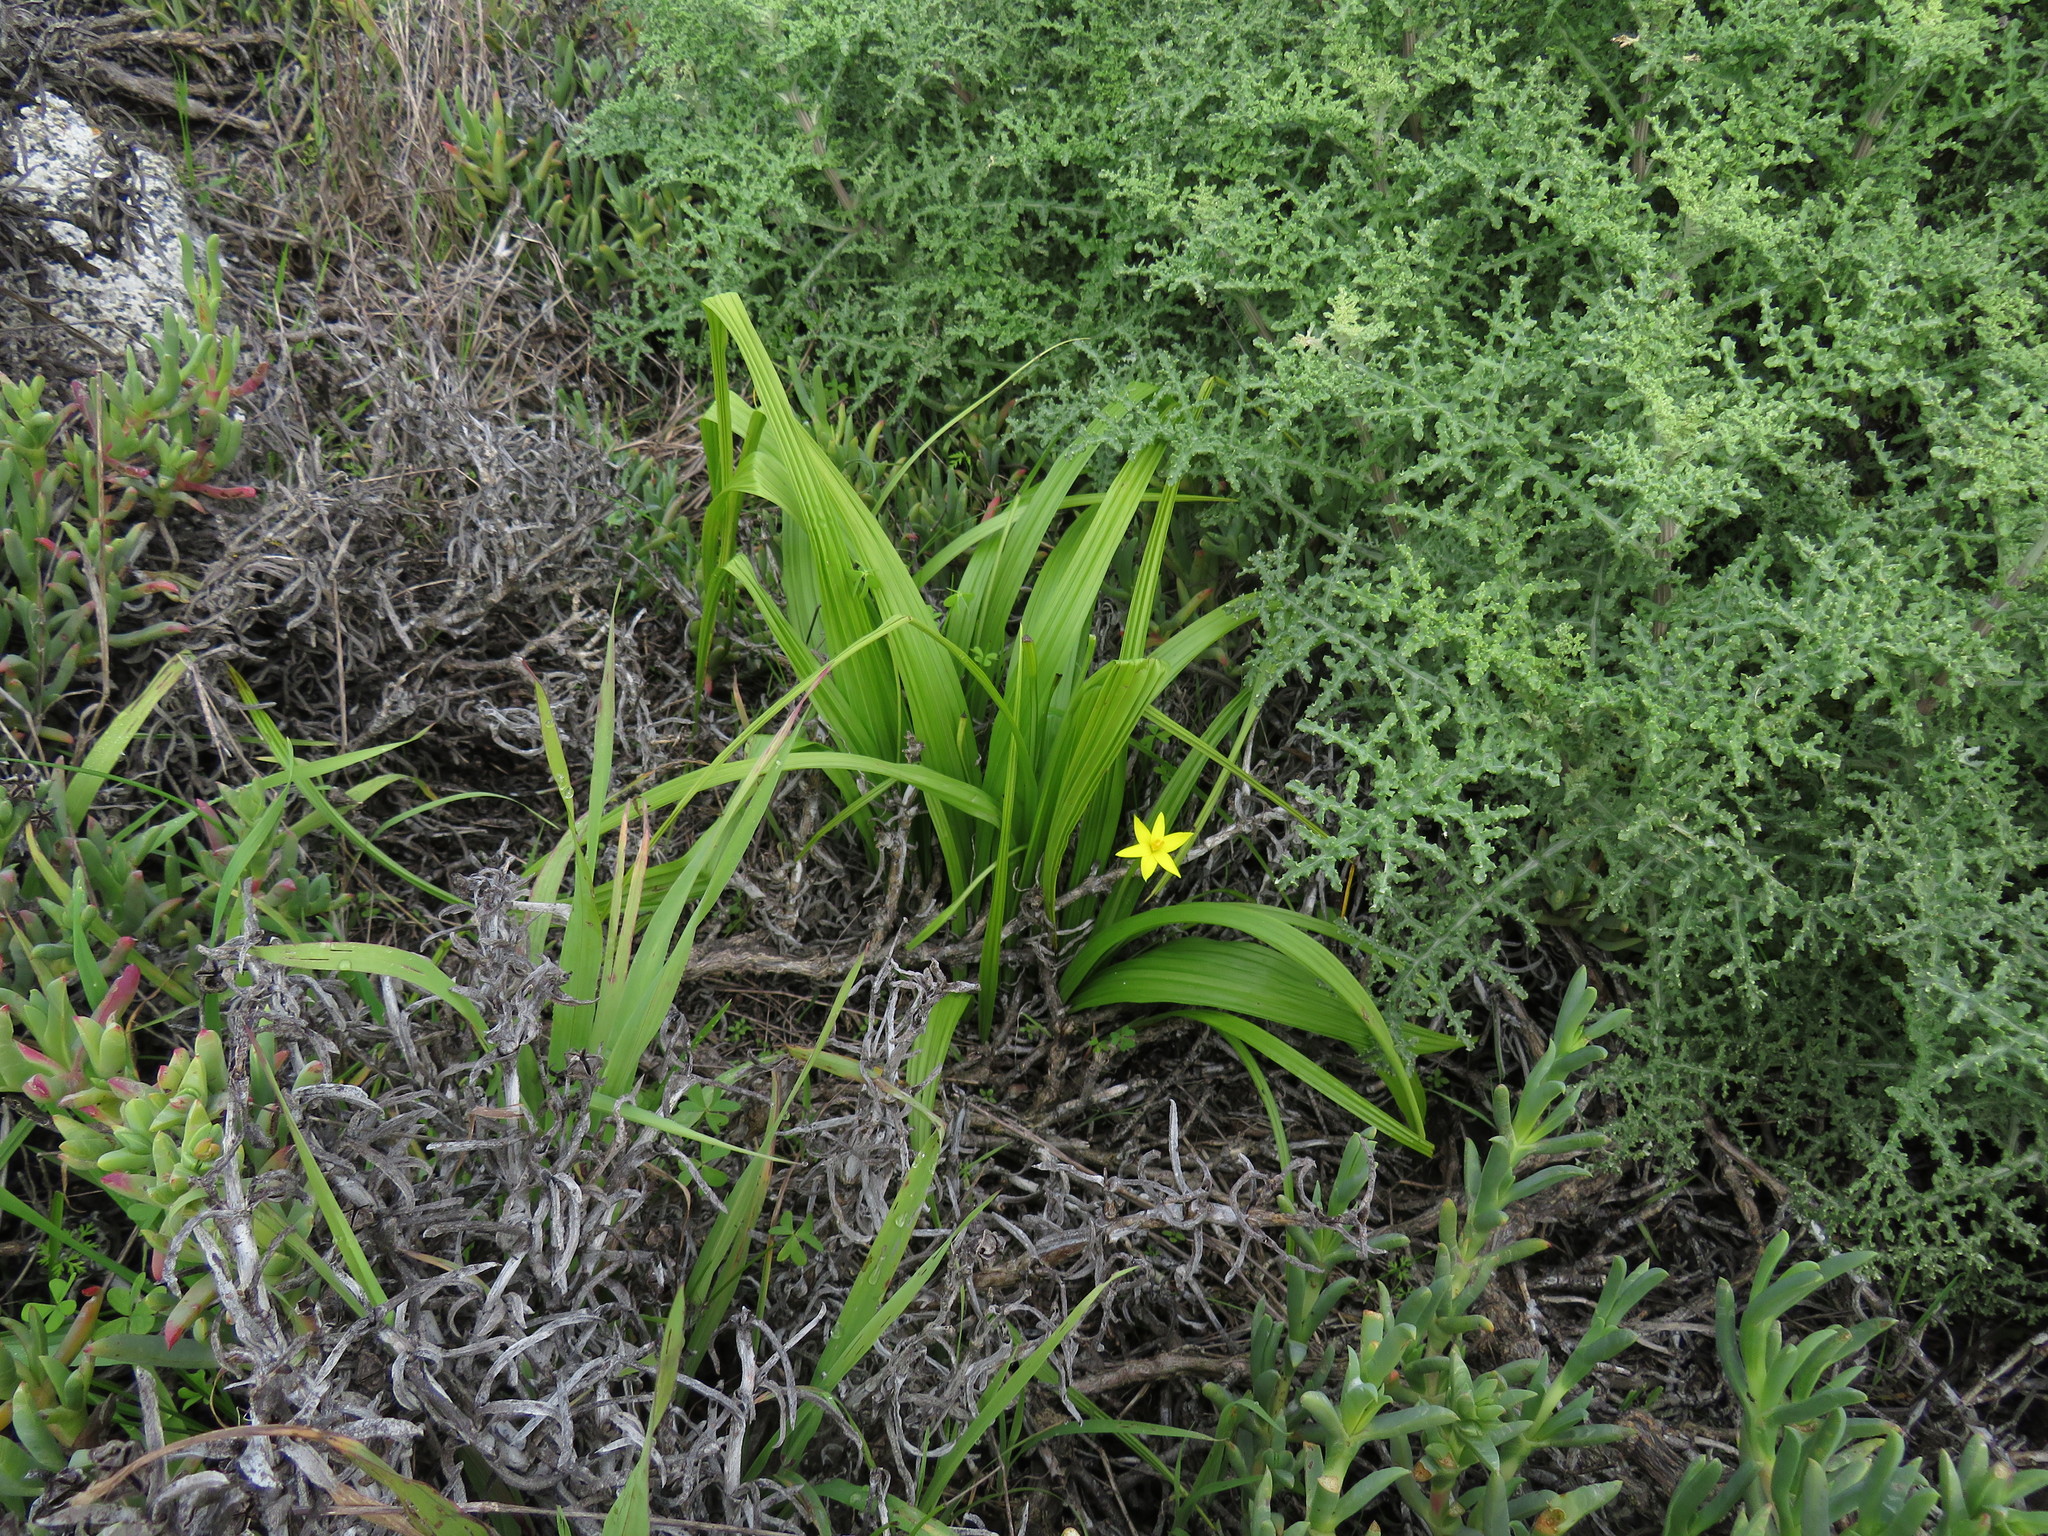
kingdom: Plantae
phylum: Tracheophyta
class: Liliopsida
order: Asparagales
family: Hypoxidaceae
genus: Empodium
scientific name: Empodium veratrifolium
